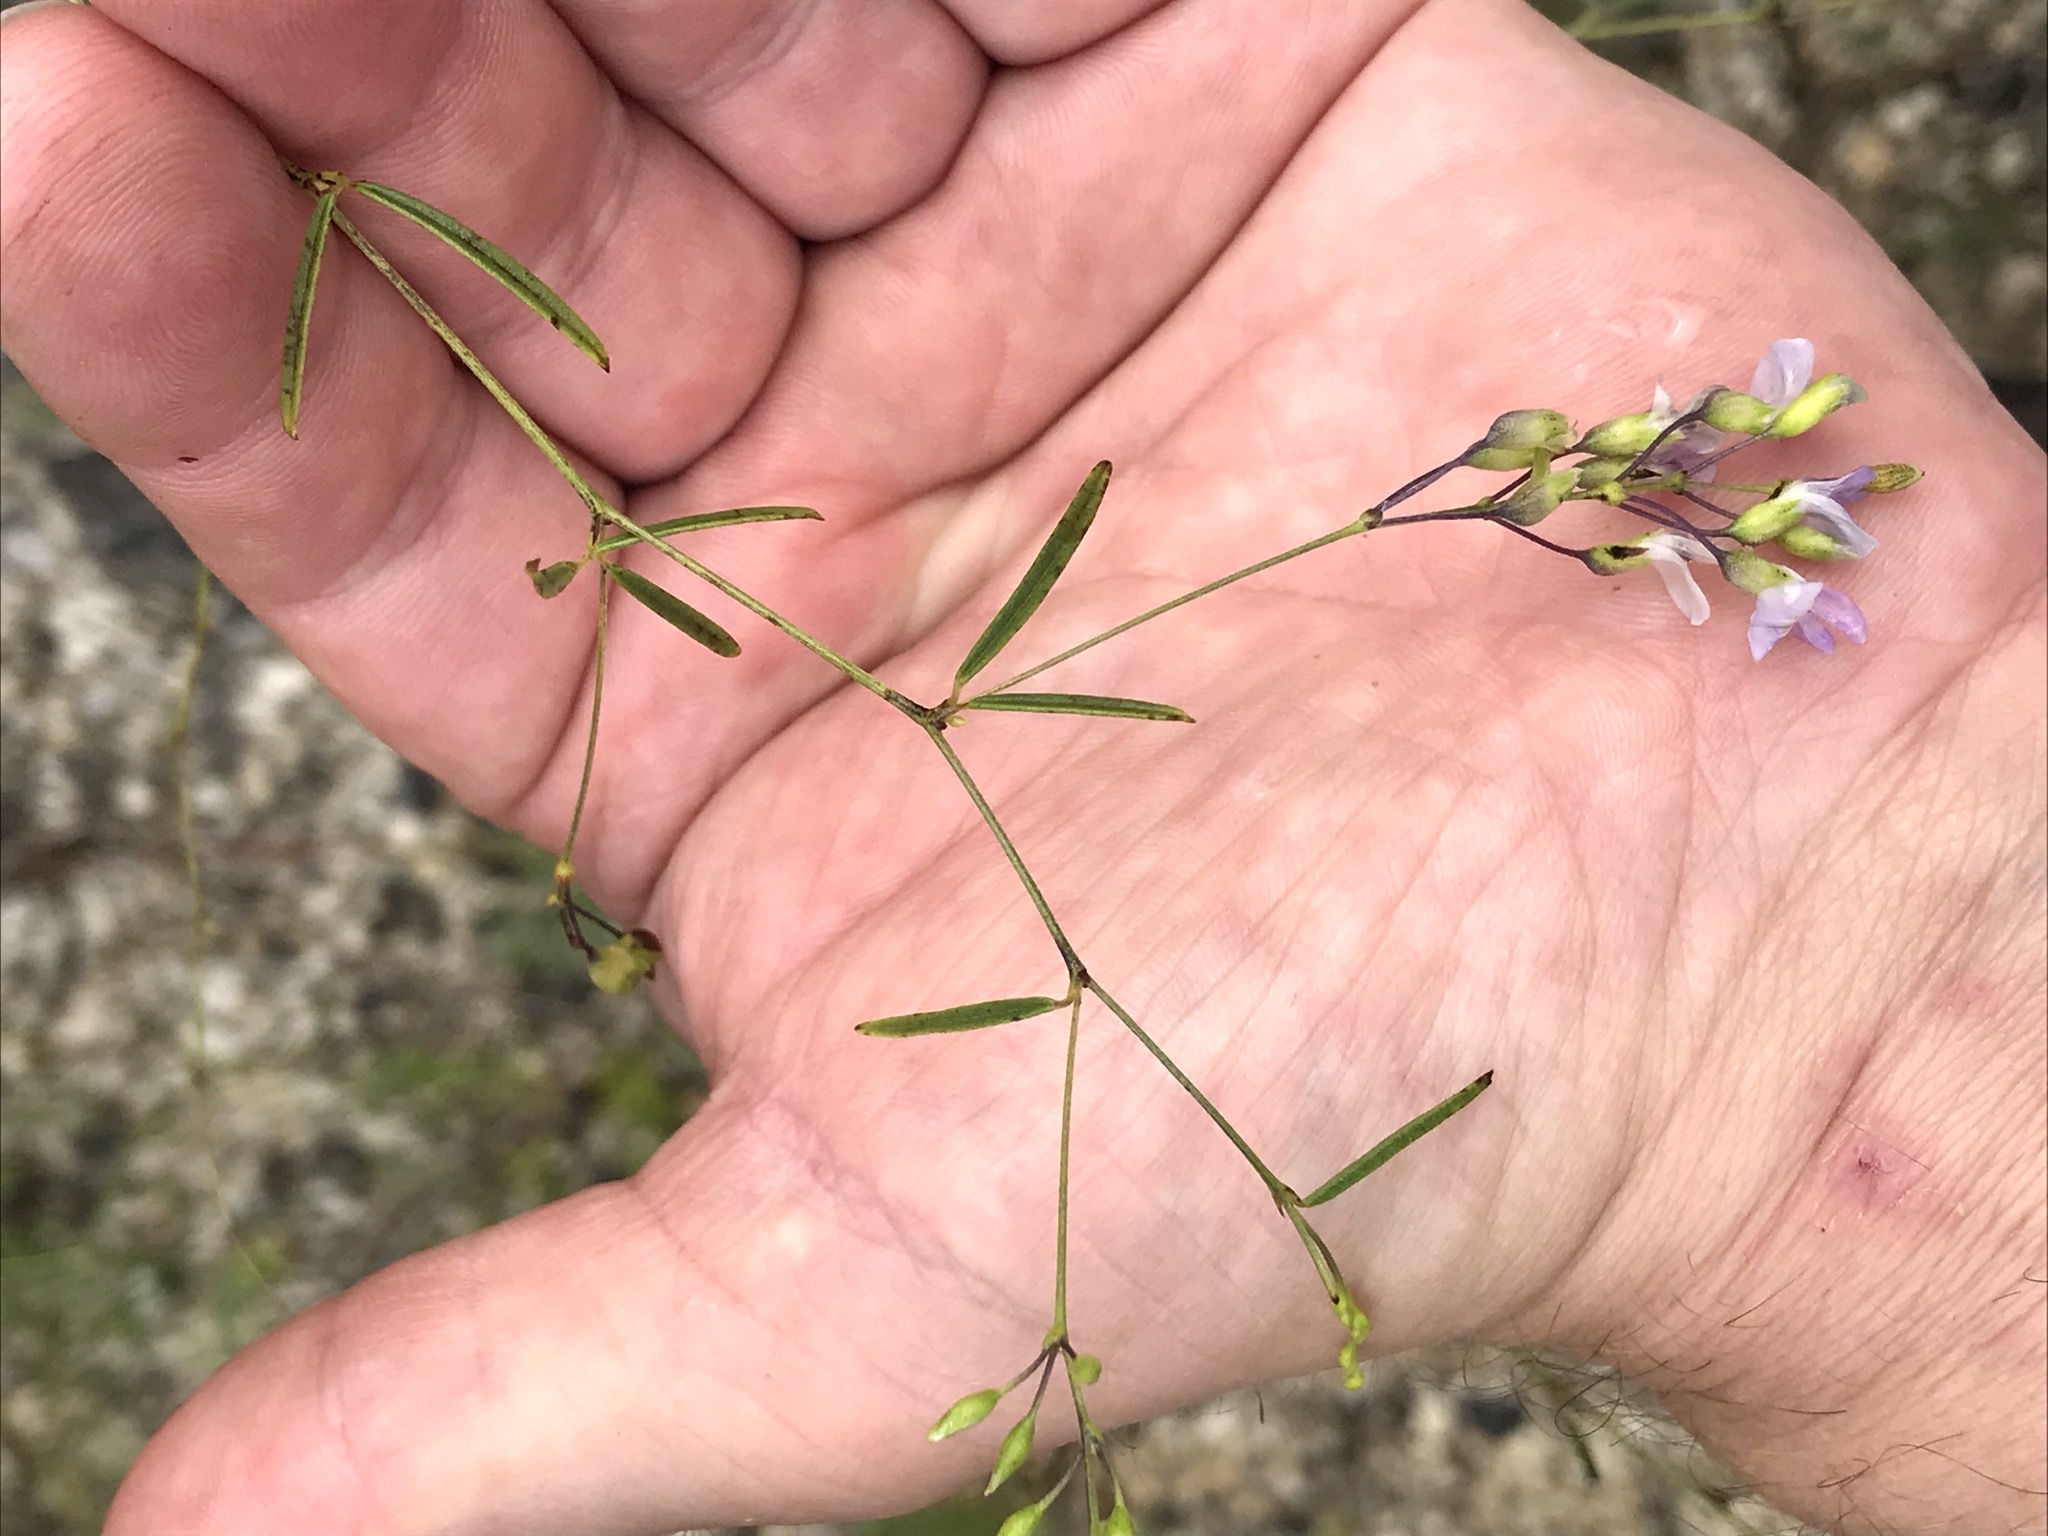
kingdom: Plantae
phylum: Tracheophyta
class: Magnoliopsida
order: Fabales
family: Fabaceae
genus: Pediomelum
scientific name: Pediomelum linearifolium
